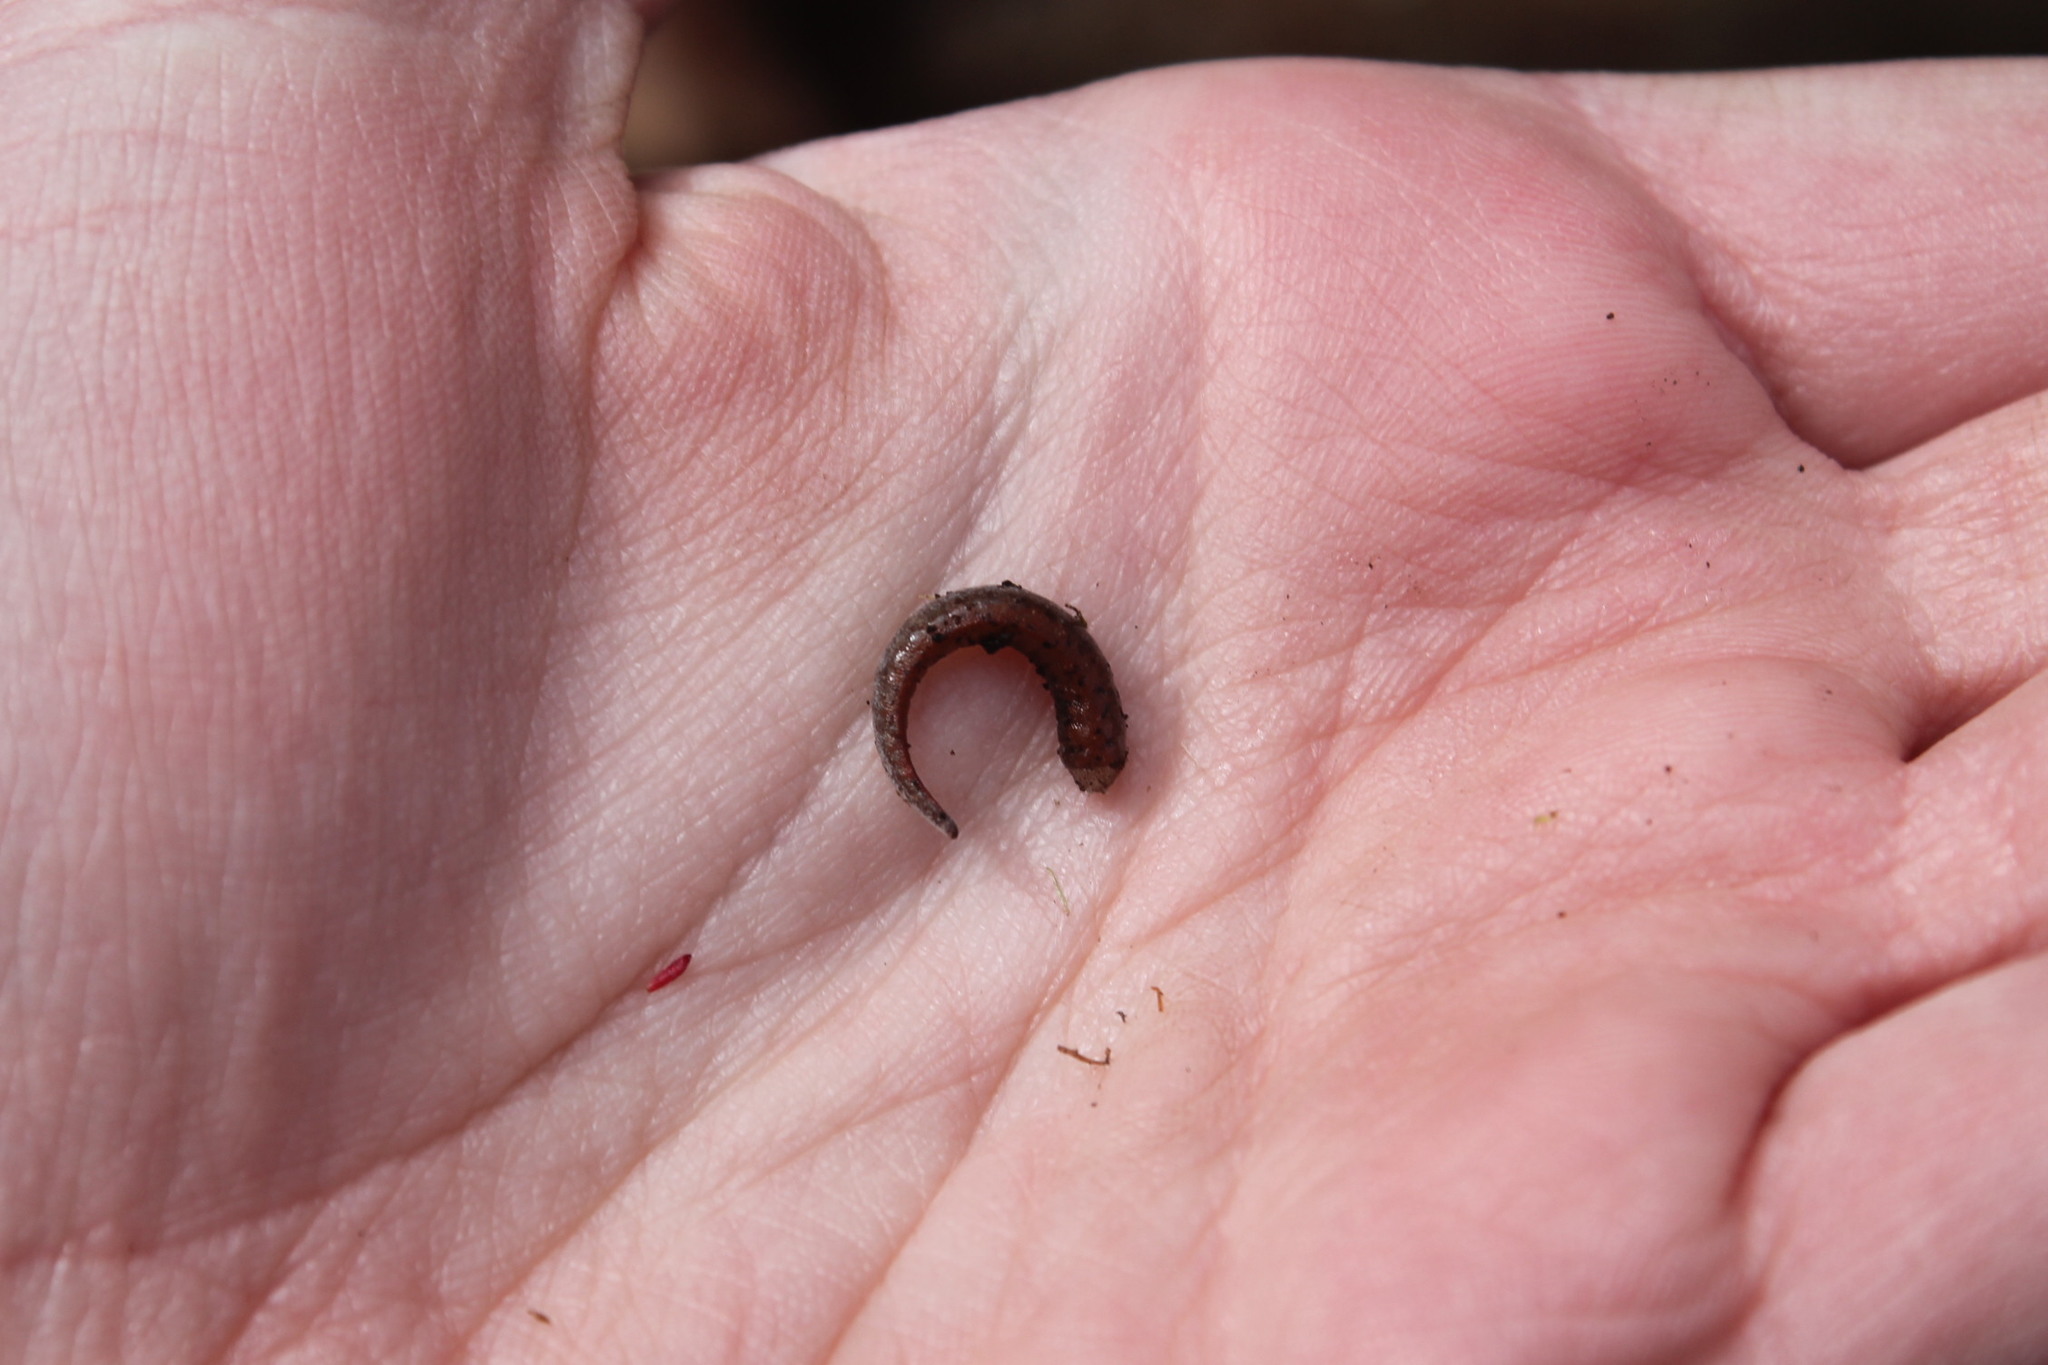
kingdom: Animalia
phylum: Chordata
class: Amphibia
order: Caudata
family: Plethodontidae
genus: Hemidactylium
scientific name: Hemidactylium scutatum
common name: Four-toed salamander
